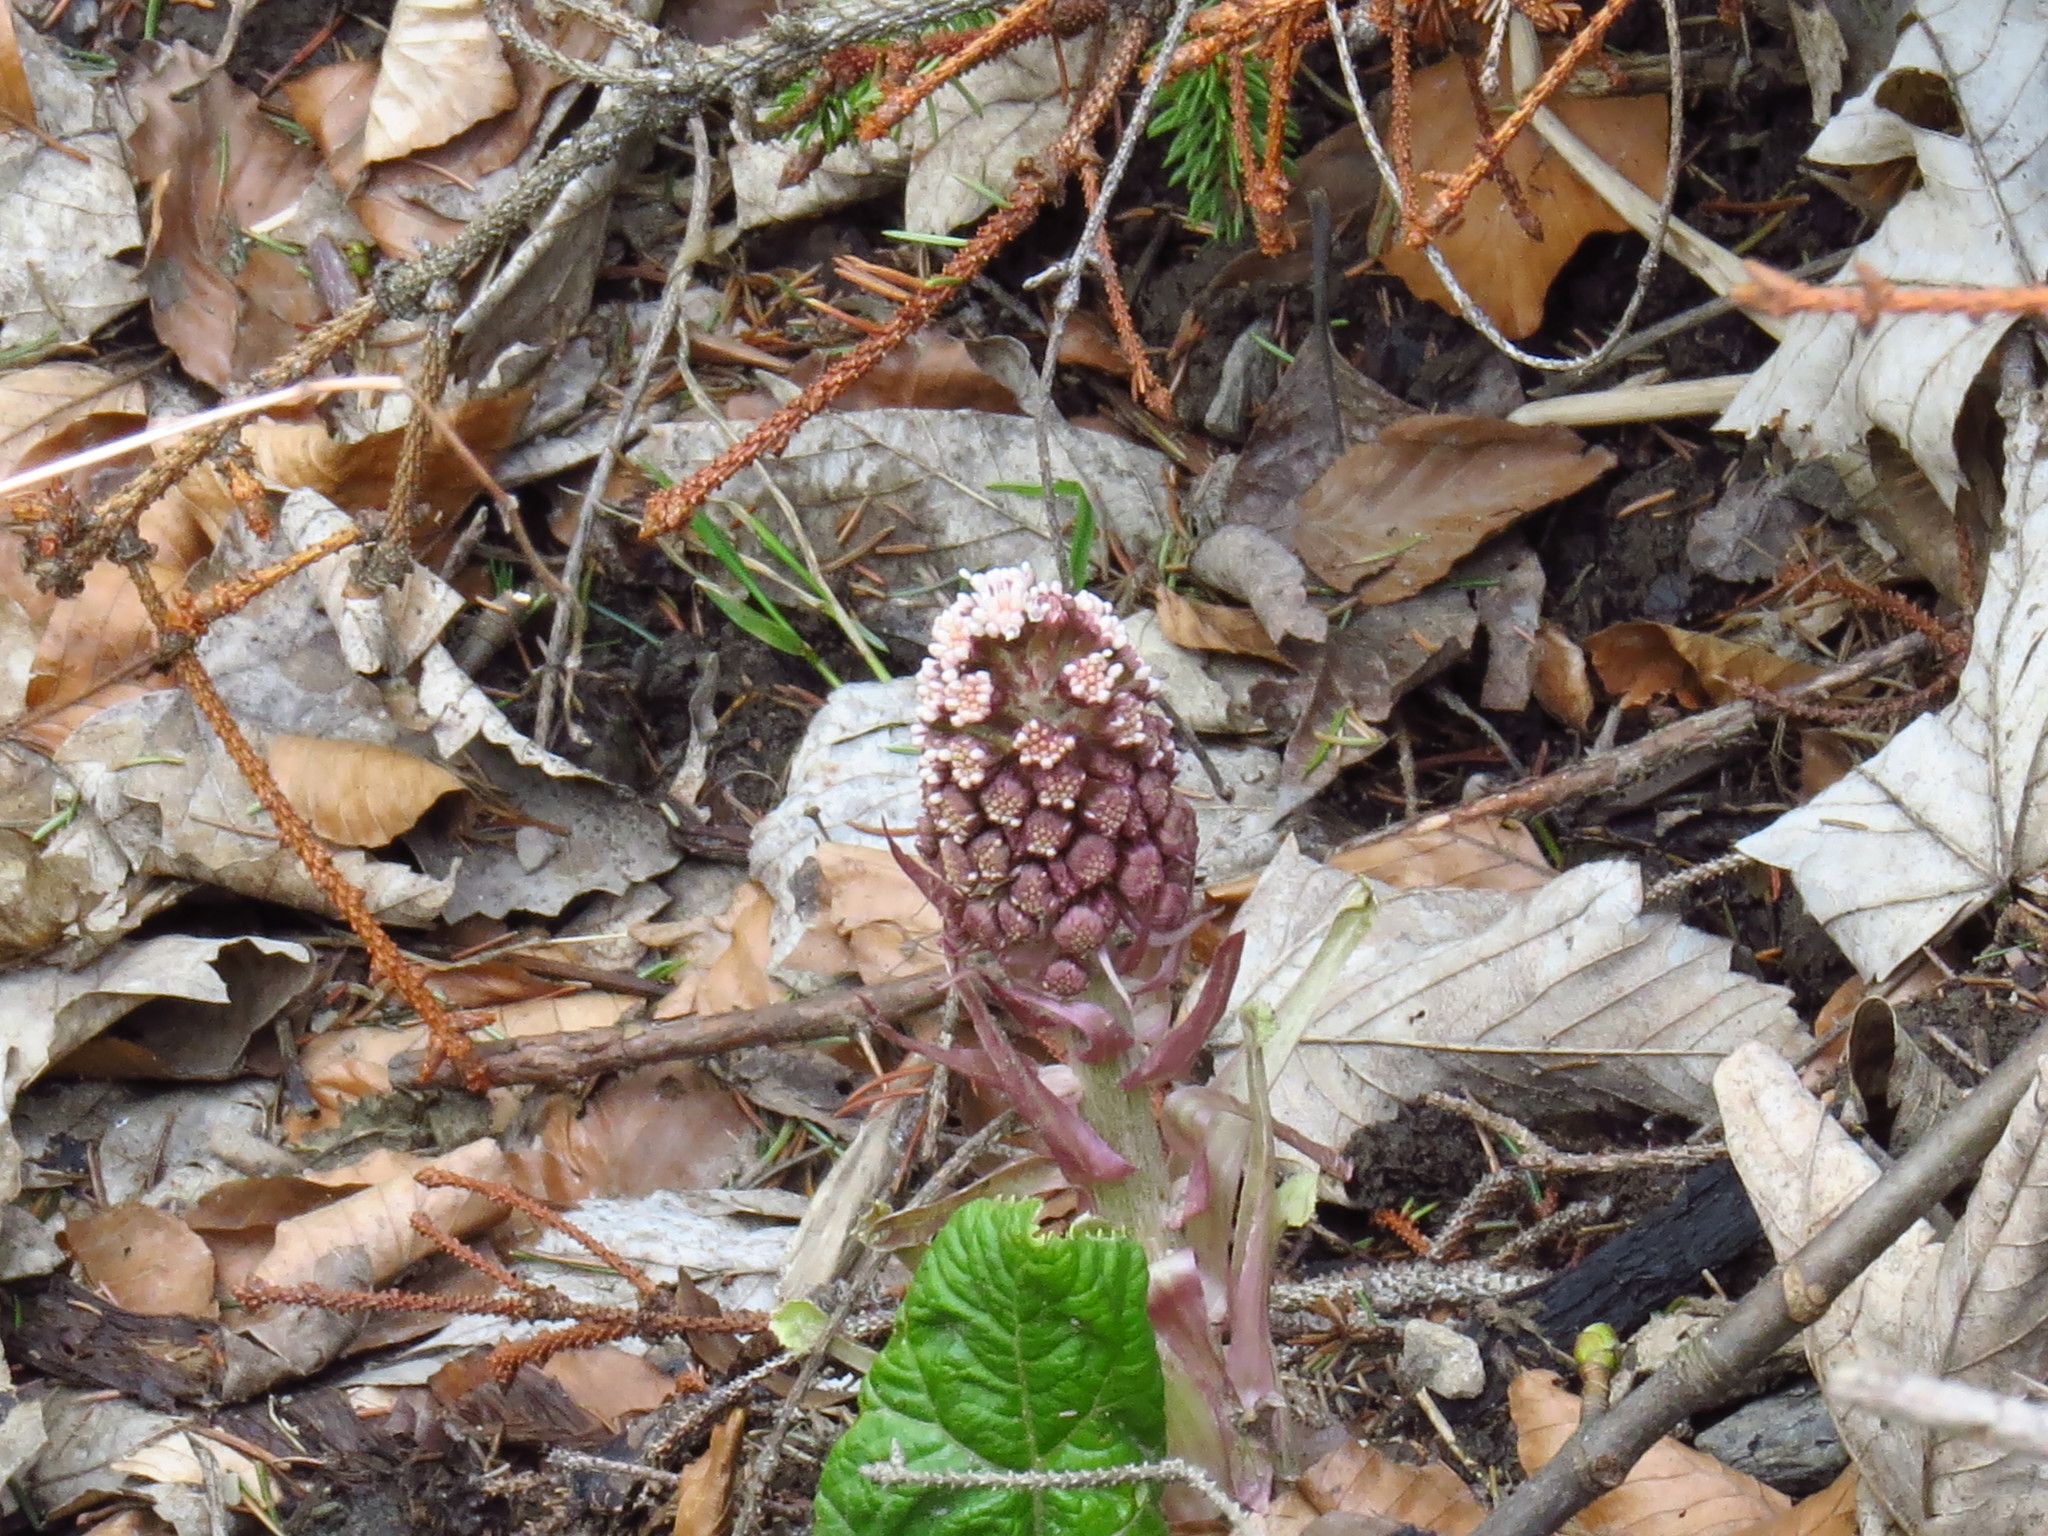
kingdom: Plantae
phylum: Tracheophyta
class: Magnoliopsida
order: Asterales
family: Asteraceae
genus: Petasites
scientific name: Petasites hybridus
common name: Butterbur
